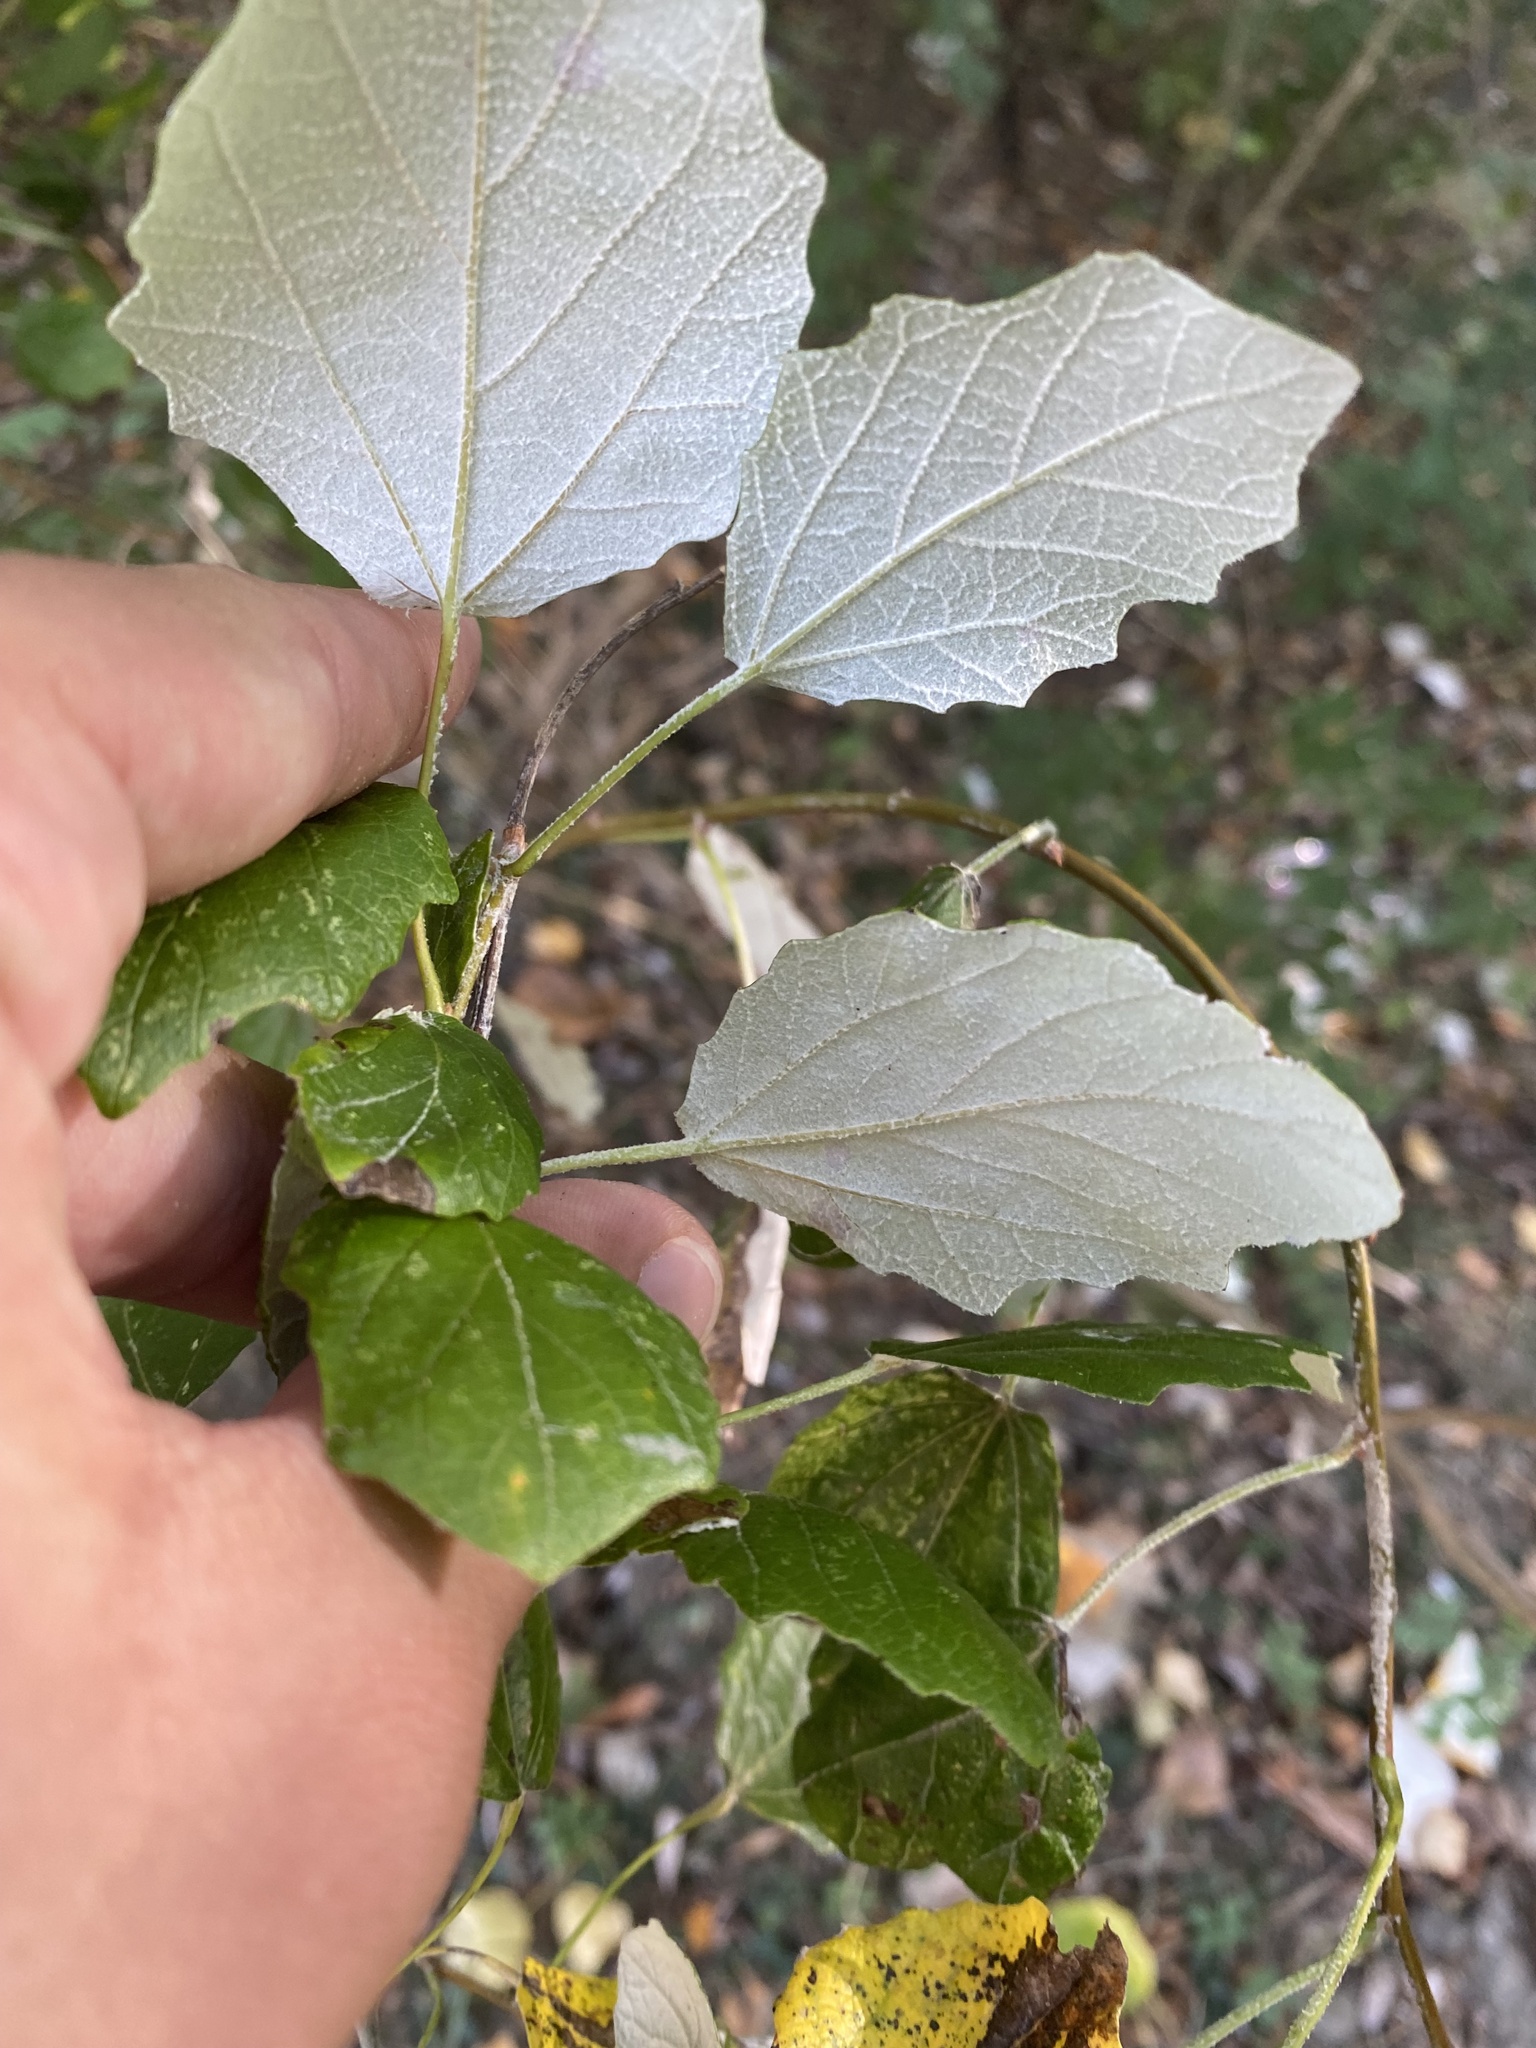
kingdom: Plantae
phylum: Tracheophyta
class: Magnoliopsida
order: Malpighiales
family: Salicaceae
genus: Populus
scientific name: Populus alba
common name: White poplar
